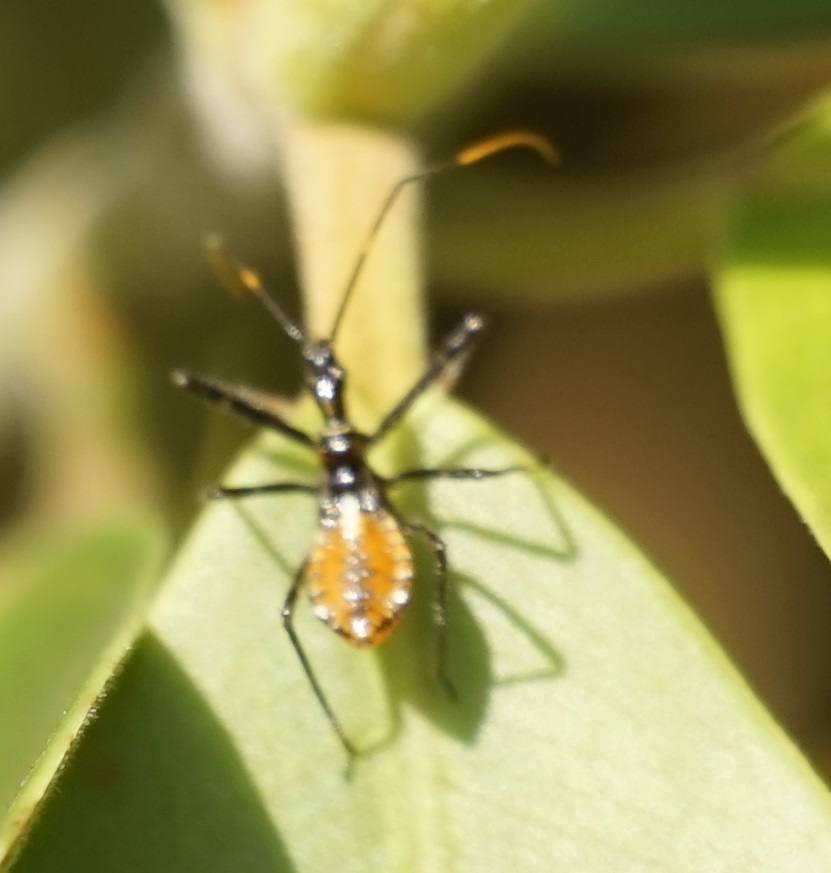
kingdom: Animalia
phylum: Arthropoda
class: Insecta
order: Hemiptera
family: Reduviidae
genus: Pristhesancus
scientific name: Pristhesancus plagipennis
